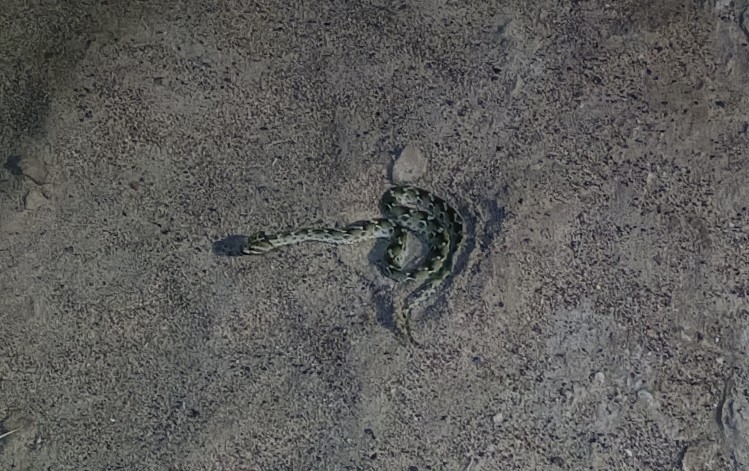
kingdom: Animalia
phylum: Chordata
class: Squamata
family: Viperidae
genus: Echis
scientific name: Echis carinatus
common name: Saw-scaled viper
